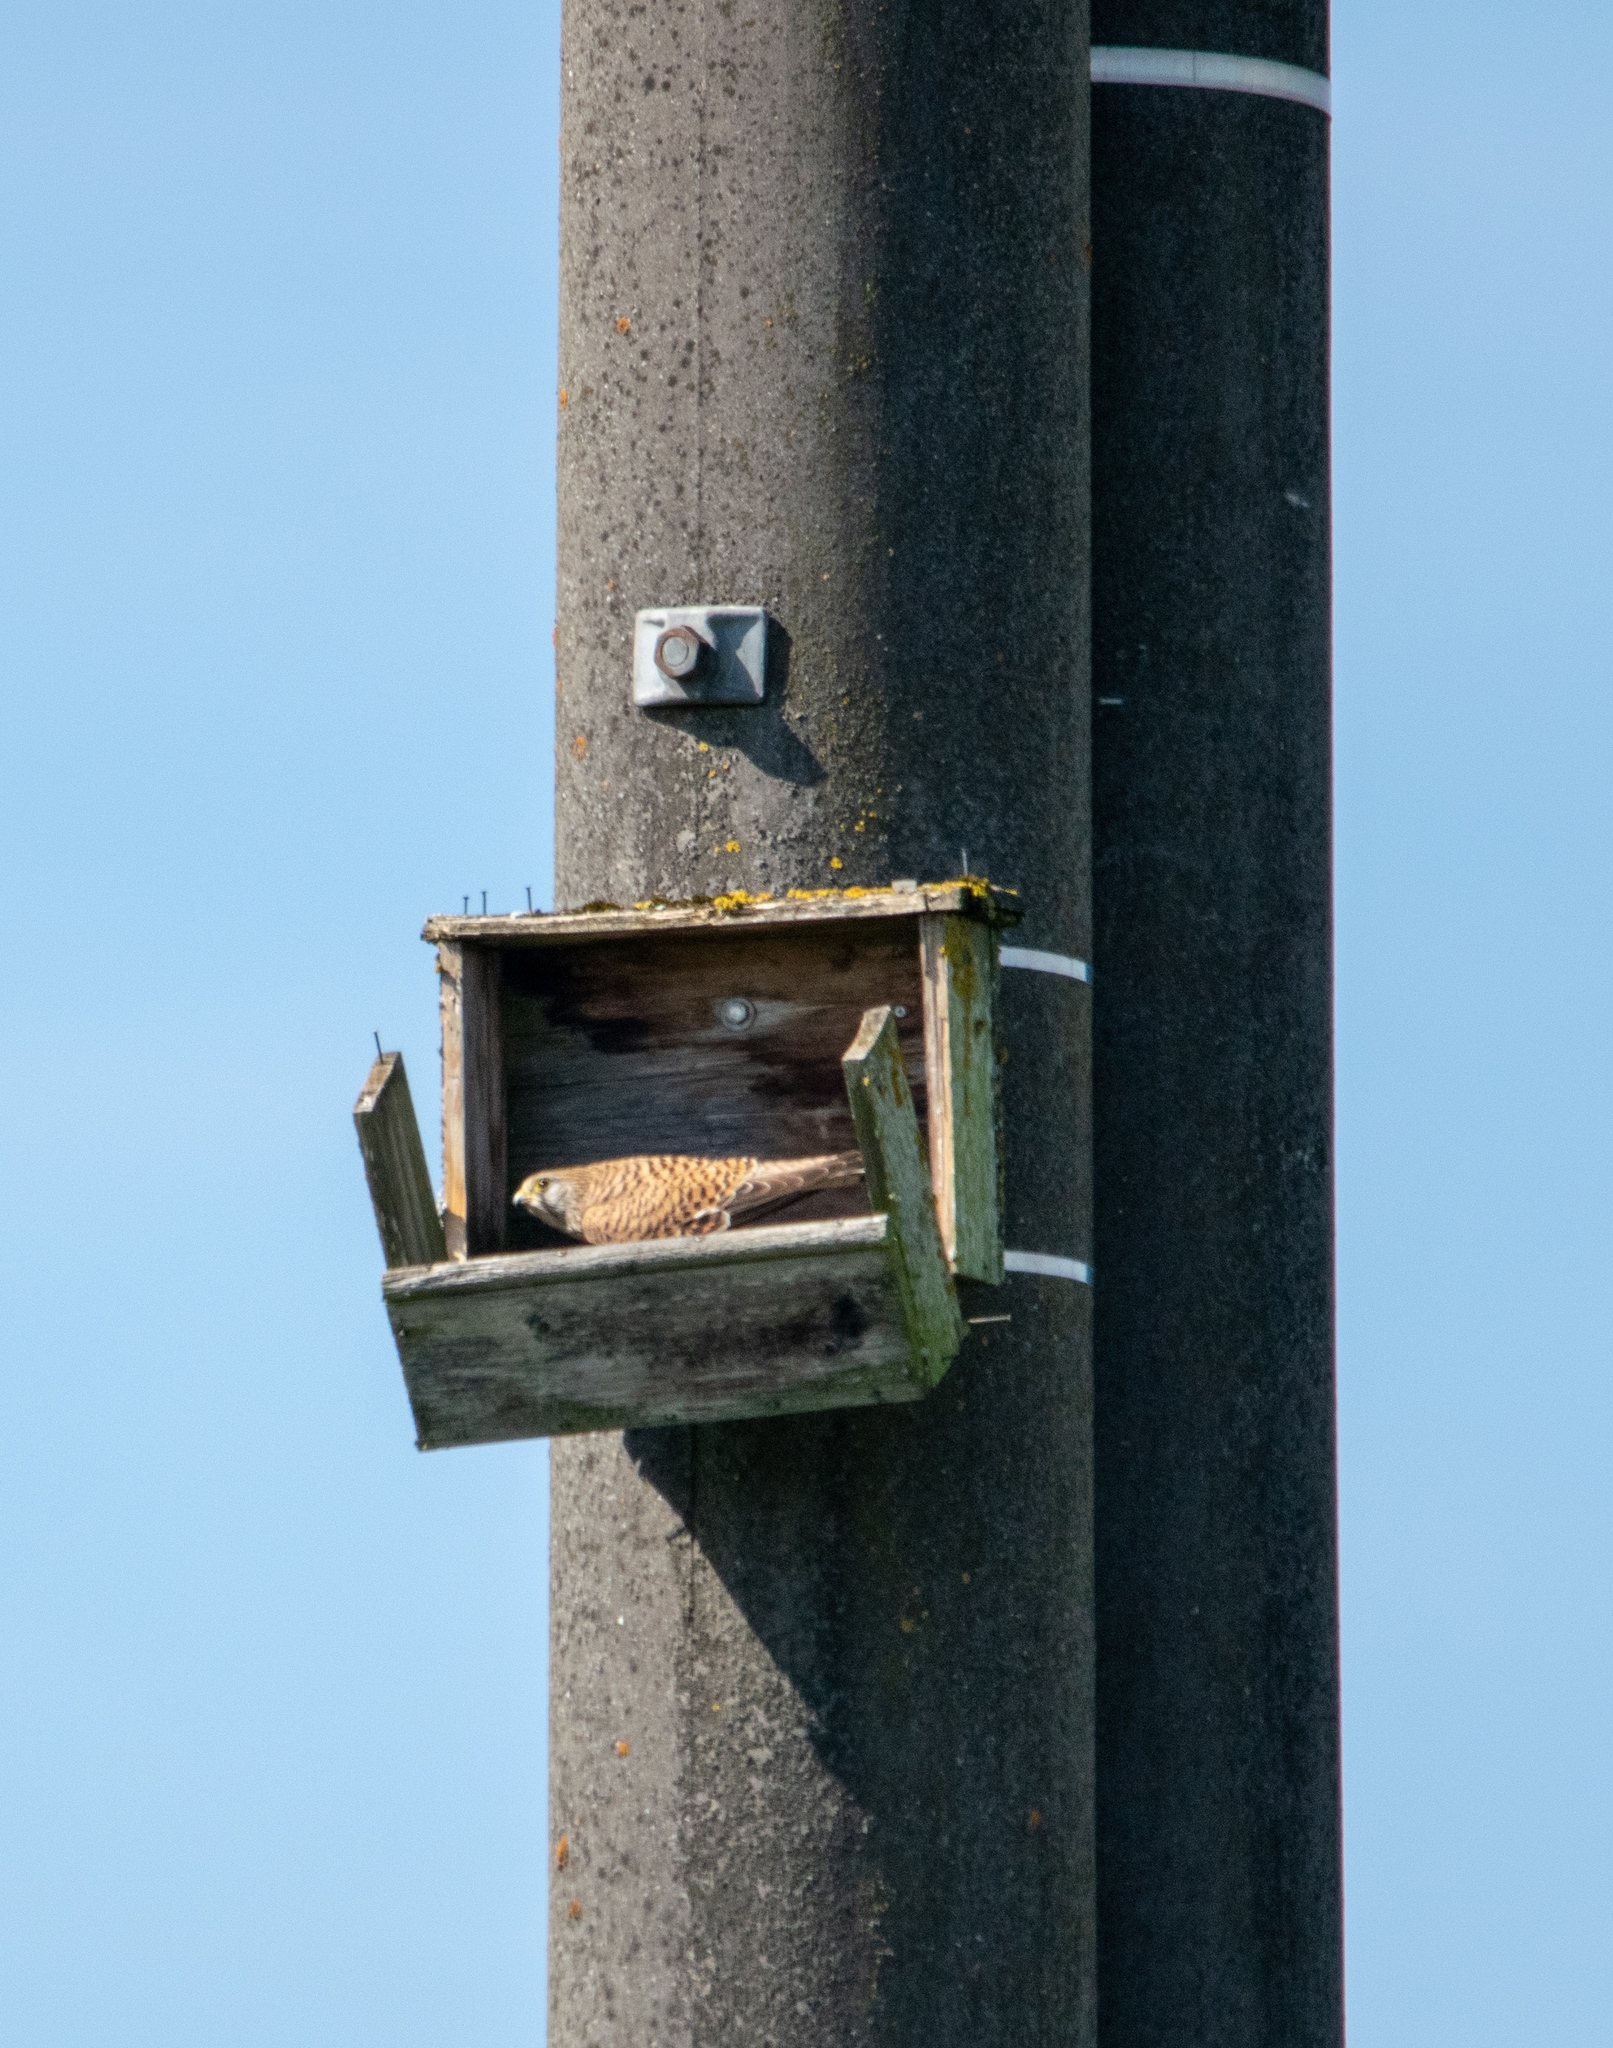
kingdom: Animalia
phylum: Chordata
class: Aves
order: Falconiformes
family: Falconidae
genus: Falco
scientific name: Falco tinnunculus
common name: Common kestrel
